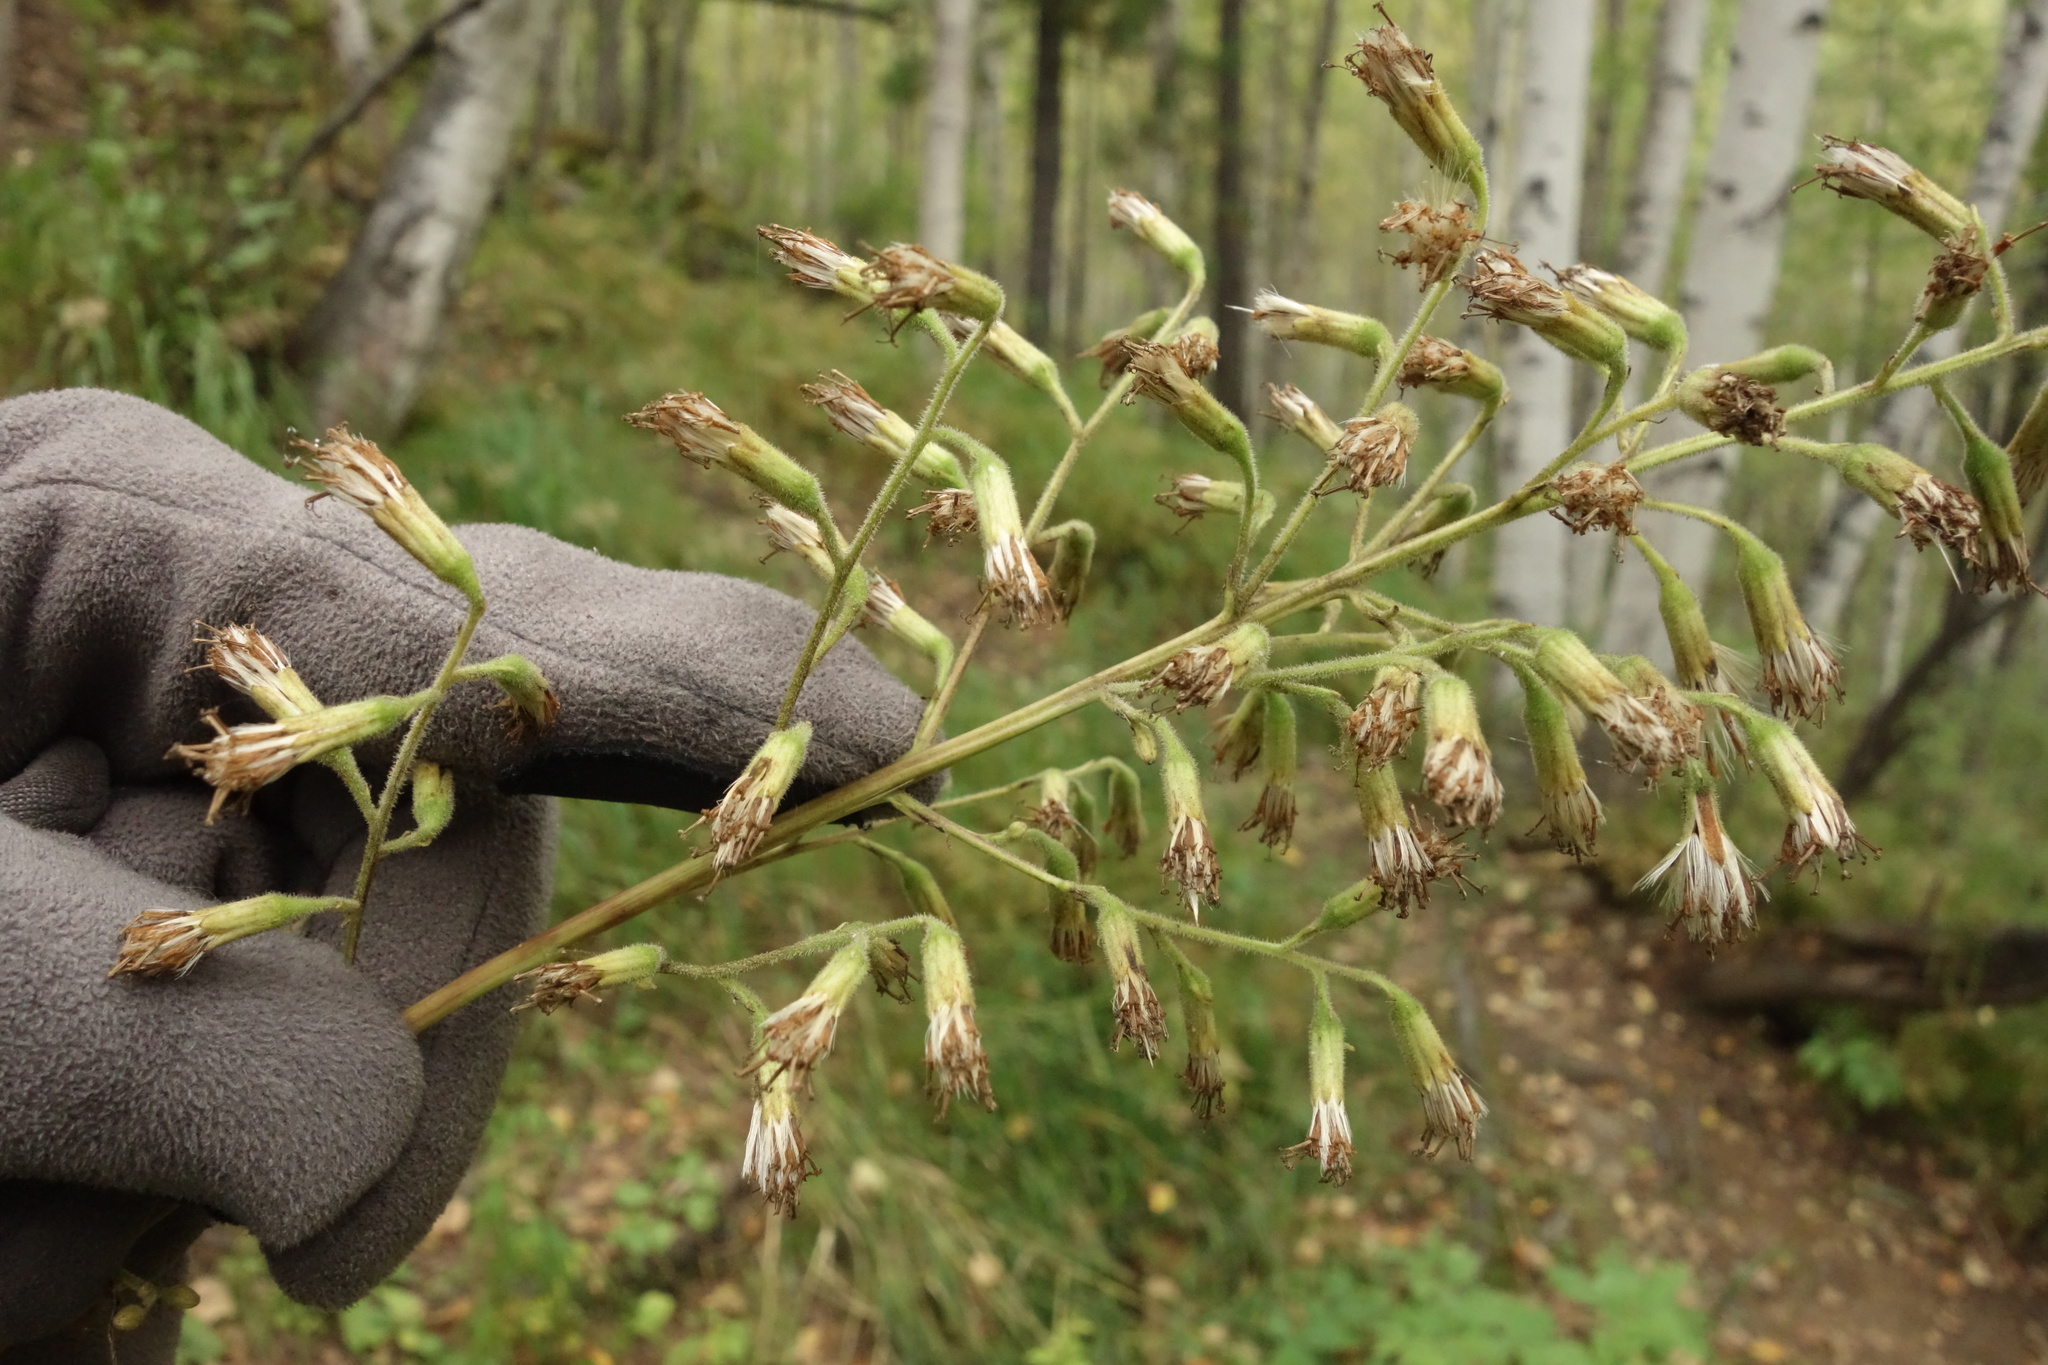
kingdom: Plantae
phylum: Tracheophyta
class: Magnoliopsida
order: Asterales
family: Asteraceae
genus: Parasenecio
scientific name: Parasenecio hastatus
